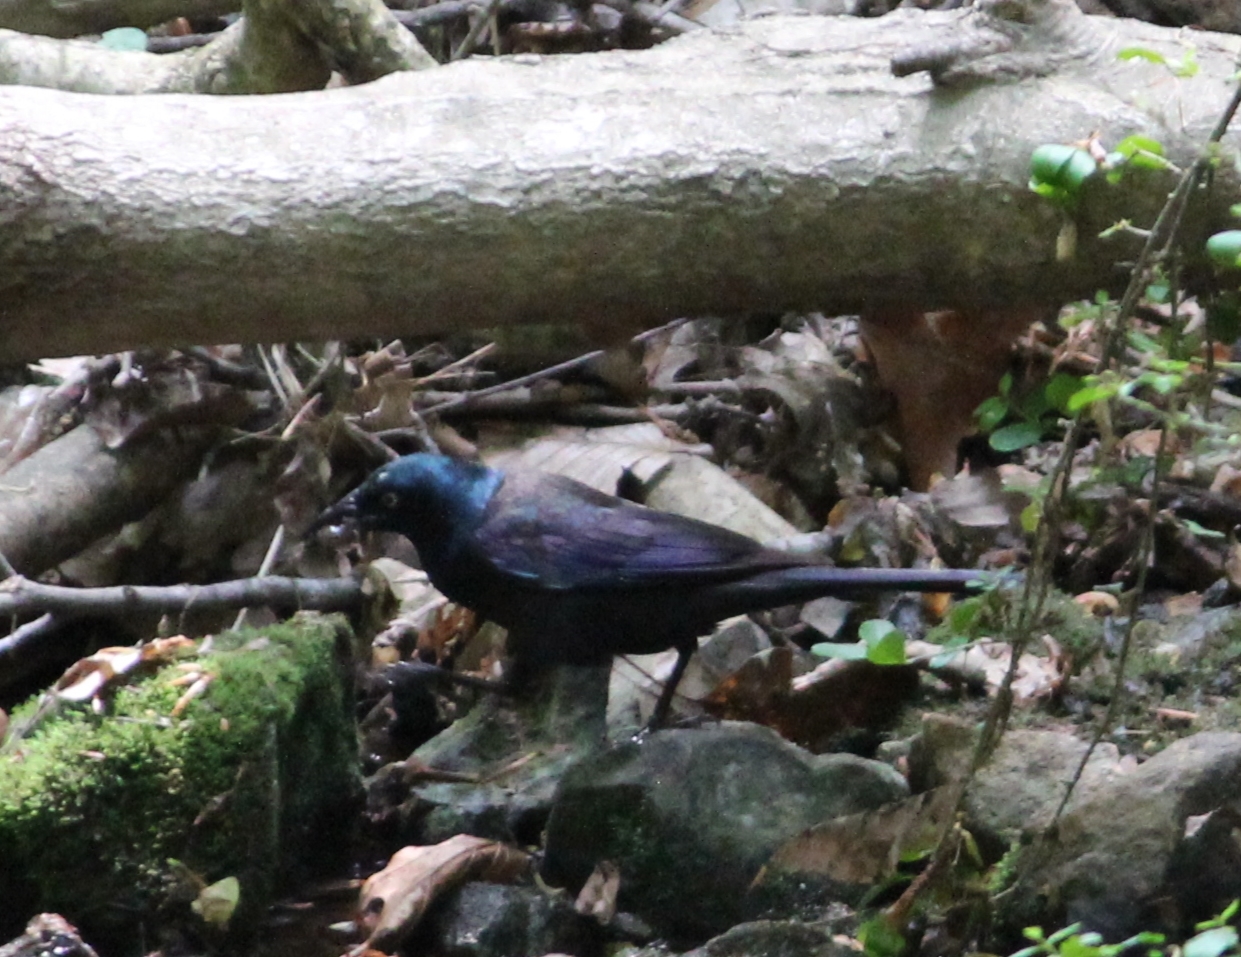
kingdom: Animalia
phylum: Chordata
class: Aves
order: Passeriformes
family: Icteridae
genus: Quiscalus
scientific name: Quiscalus quiscula
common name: Common grackle
